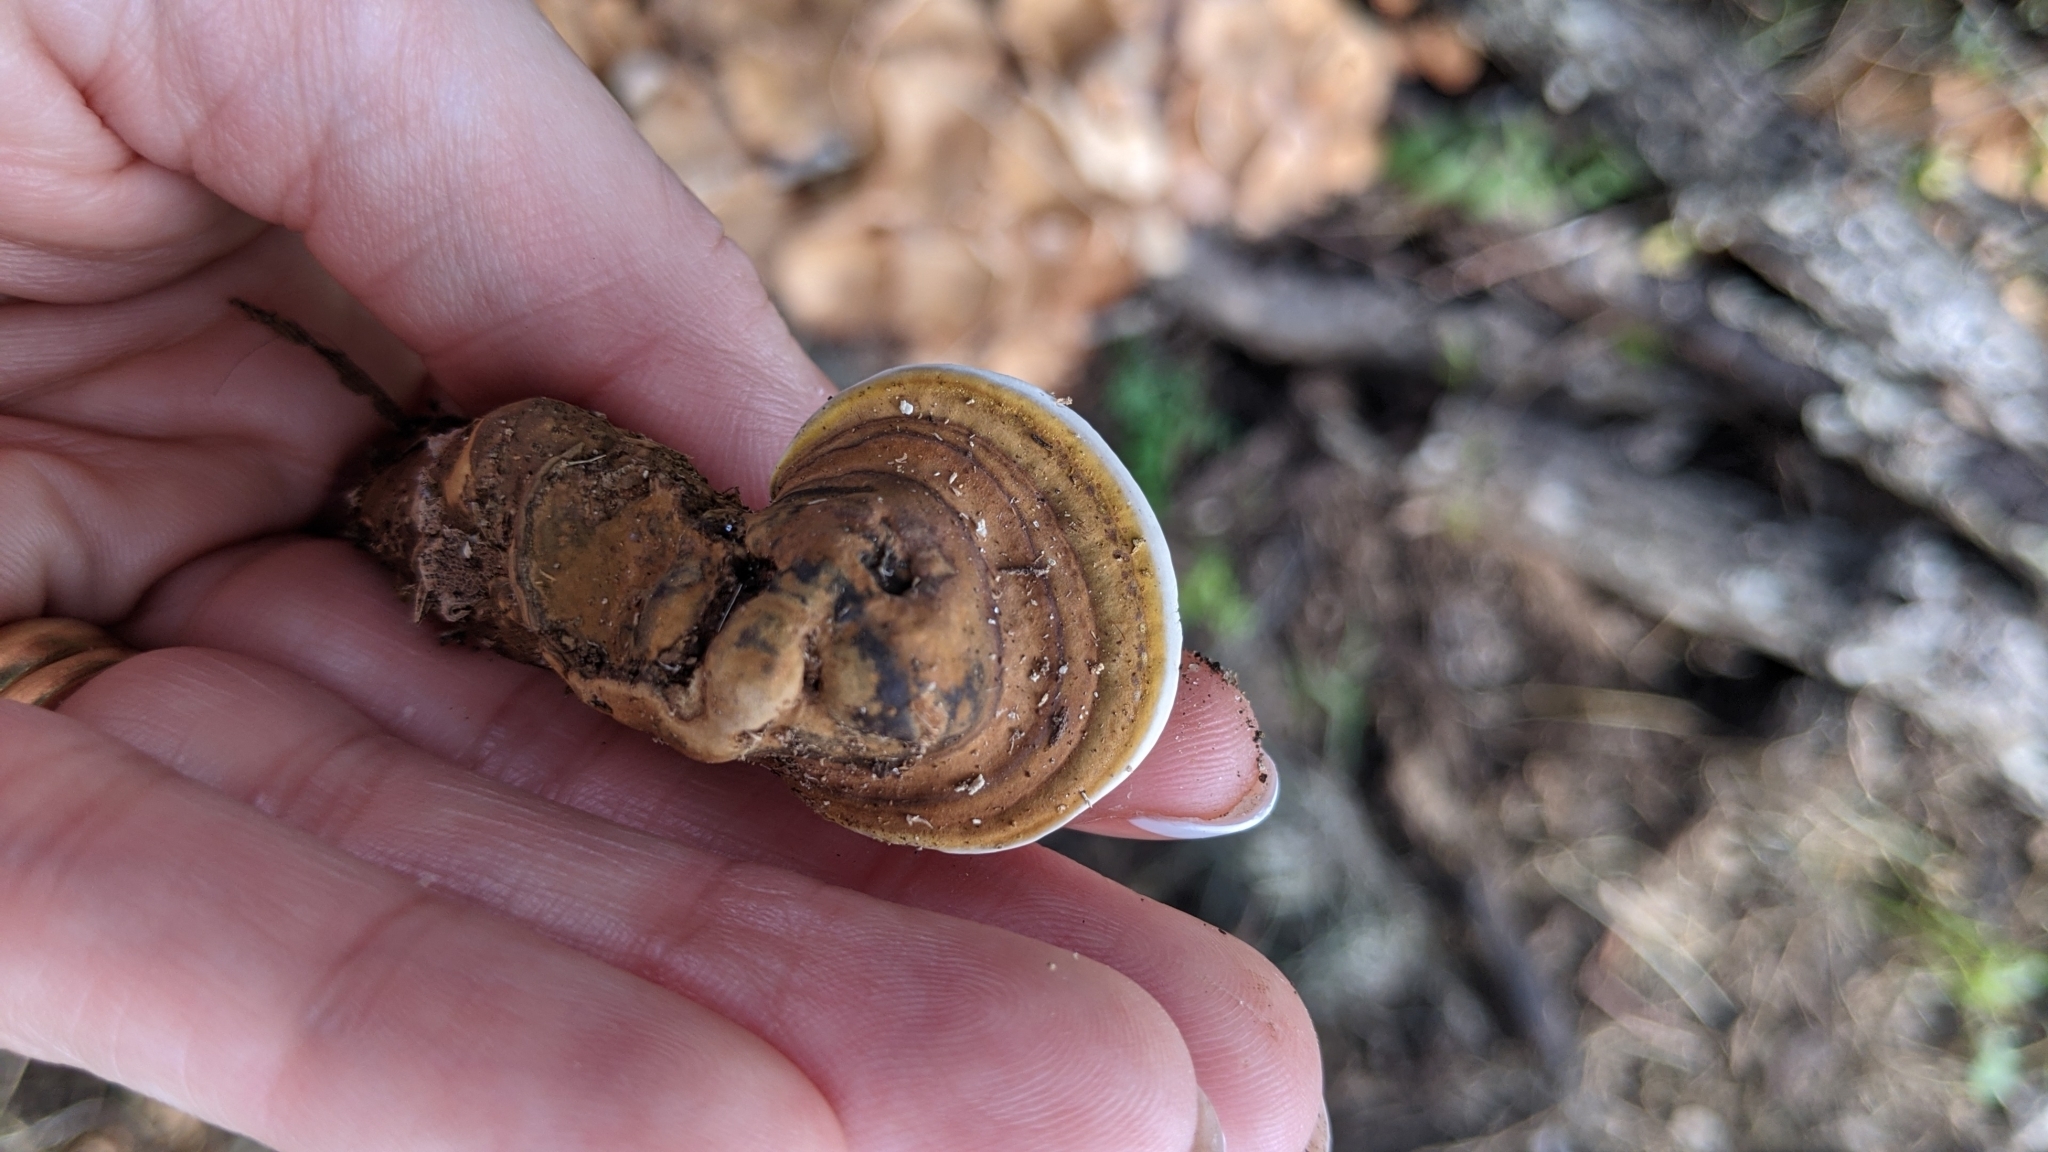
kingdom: Fungi
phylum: Basidiomycota
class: Agaricomycetes
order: Polyporales
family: Polyporaceae
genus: Ganoderma
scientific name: Ganoderma curtisii
